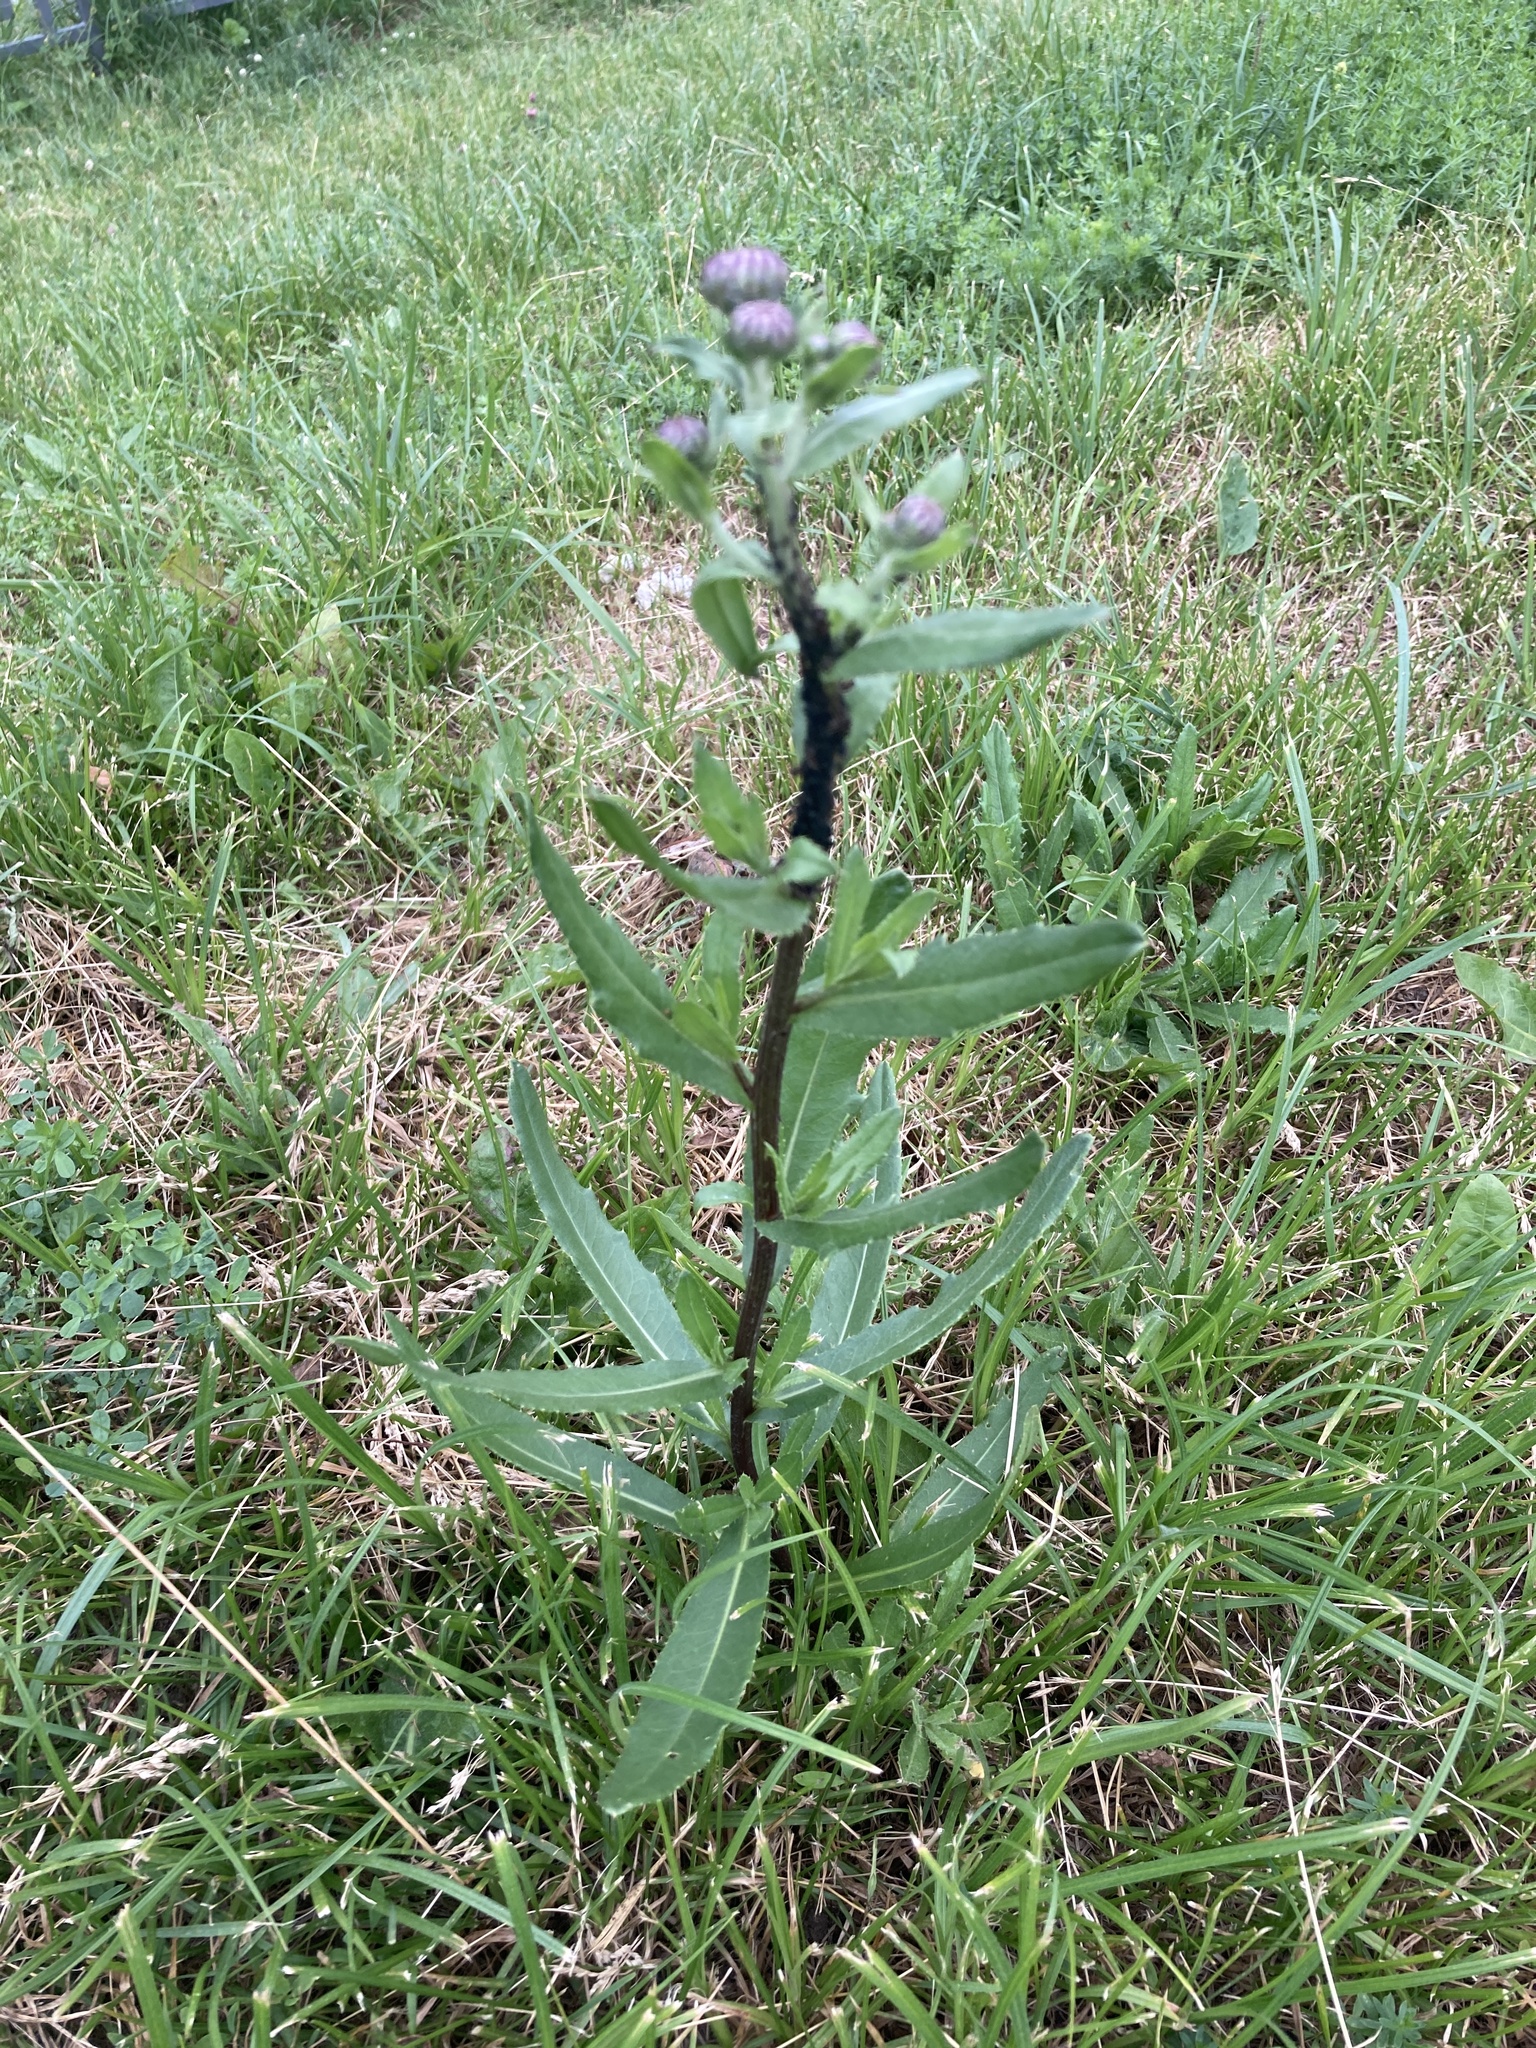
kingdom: Plantae
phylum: Tracheophyta
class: Magnoliopsida
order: Asterales
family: Asteraceae
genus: Cirsium
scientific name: Cirsium arvense
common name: Creeping thistle
